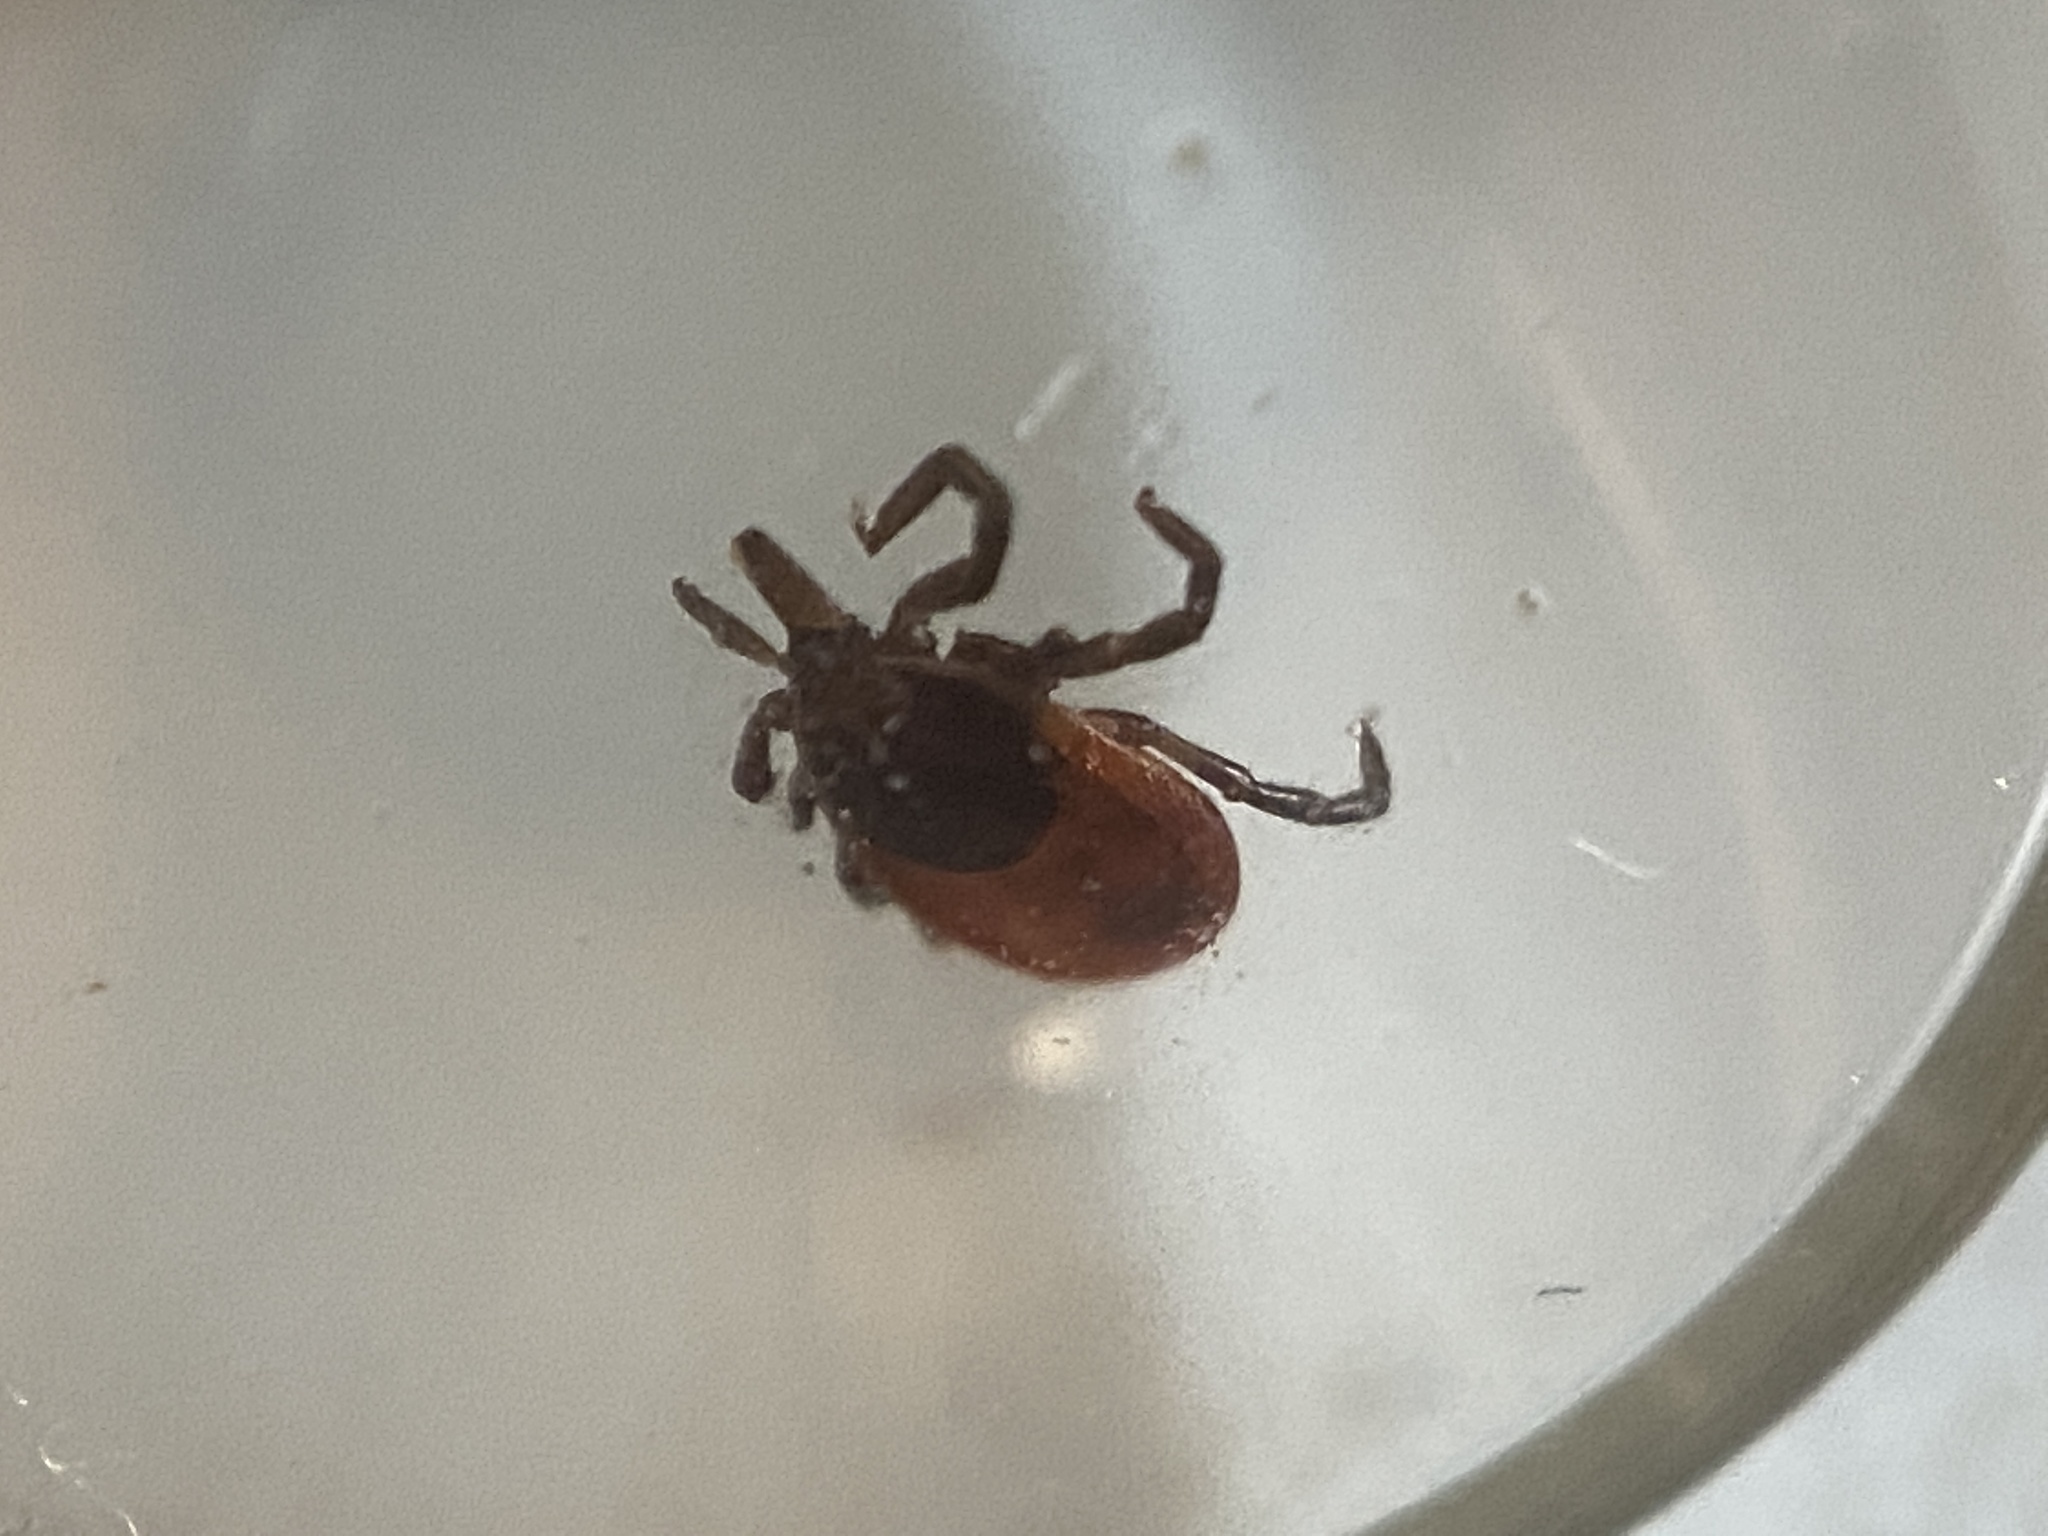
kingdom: Animalia
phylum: Arthropoda
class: Arachnida
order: Ixodida
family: Ixodidae
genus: Ixodes
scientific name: Ixodes scapularis
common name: Black legged tick
